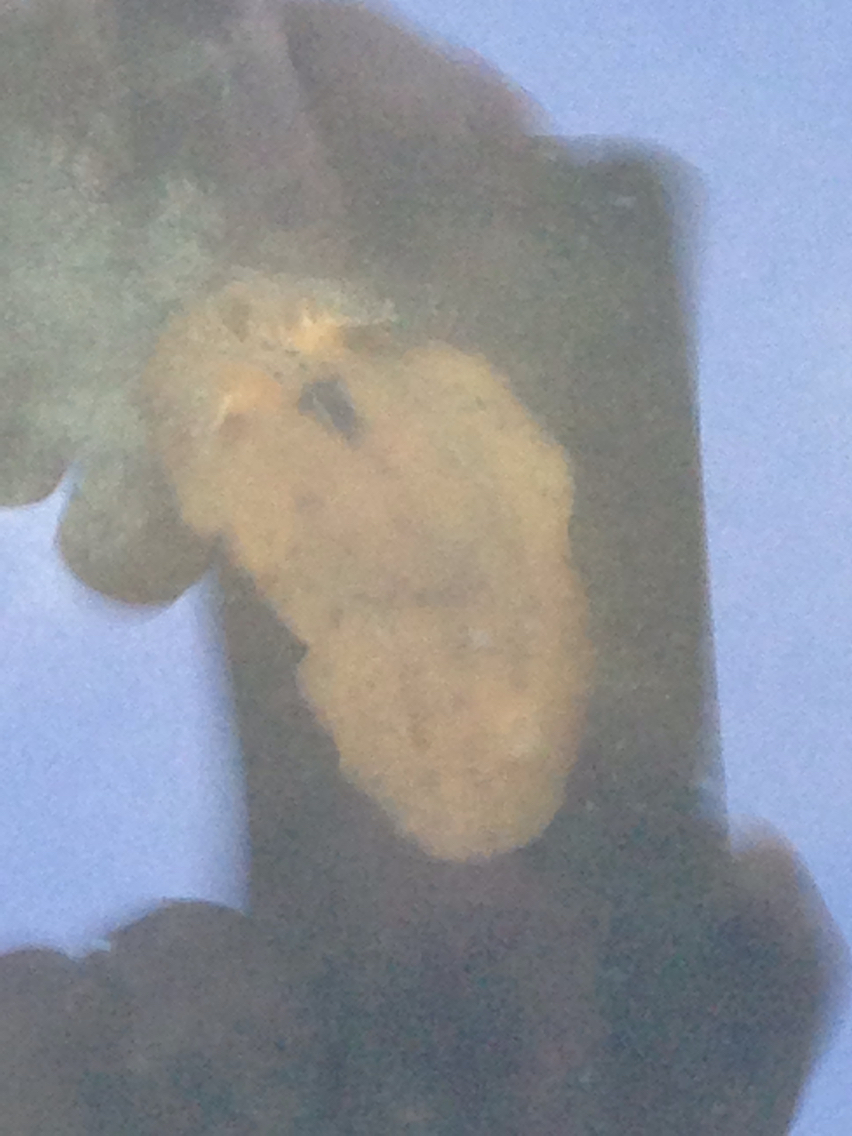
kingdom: Animalia
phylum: Mollusca
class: Gastropoda
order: Nudibranchia
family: Discodorididae
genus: Geitodoris
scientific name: Geitodoris heathi
